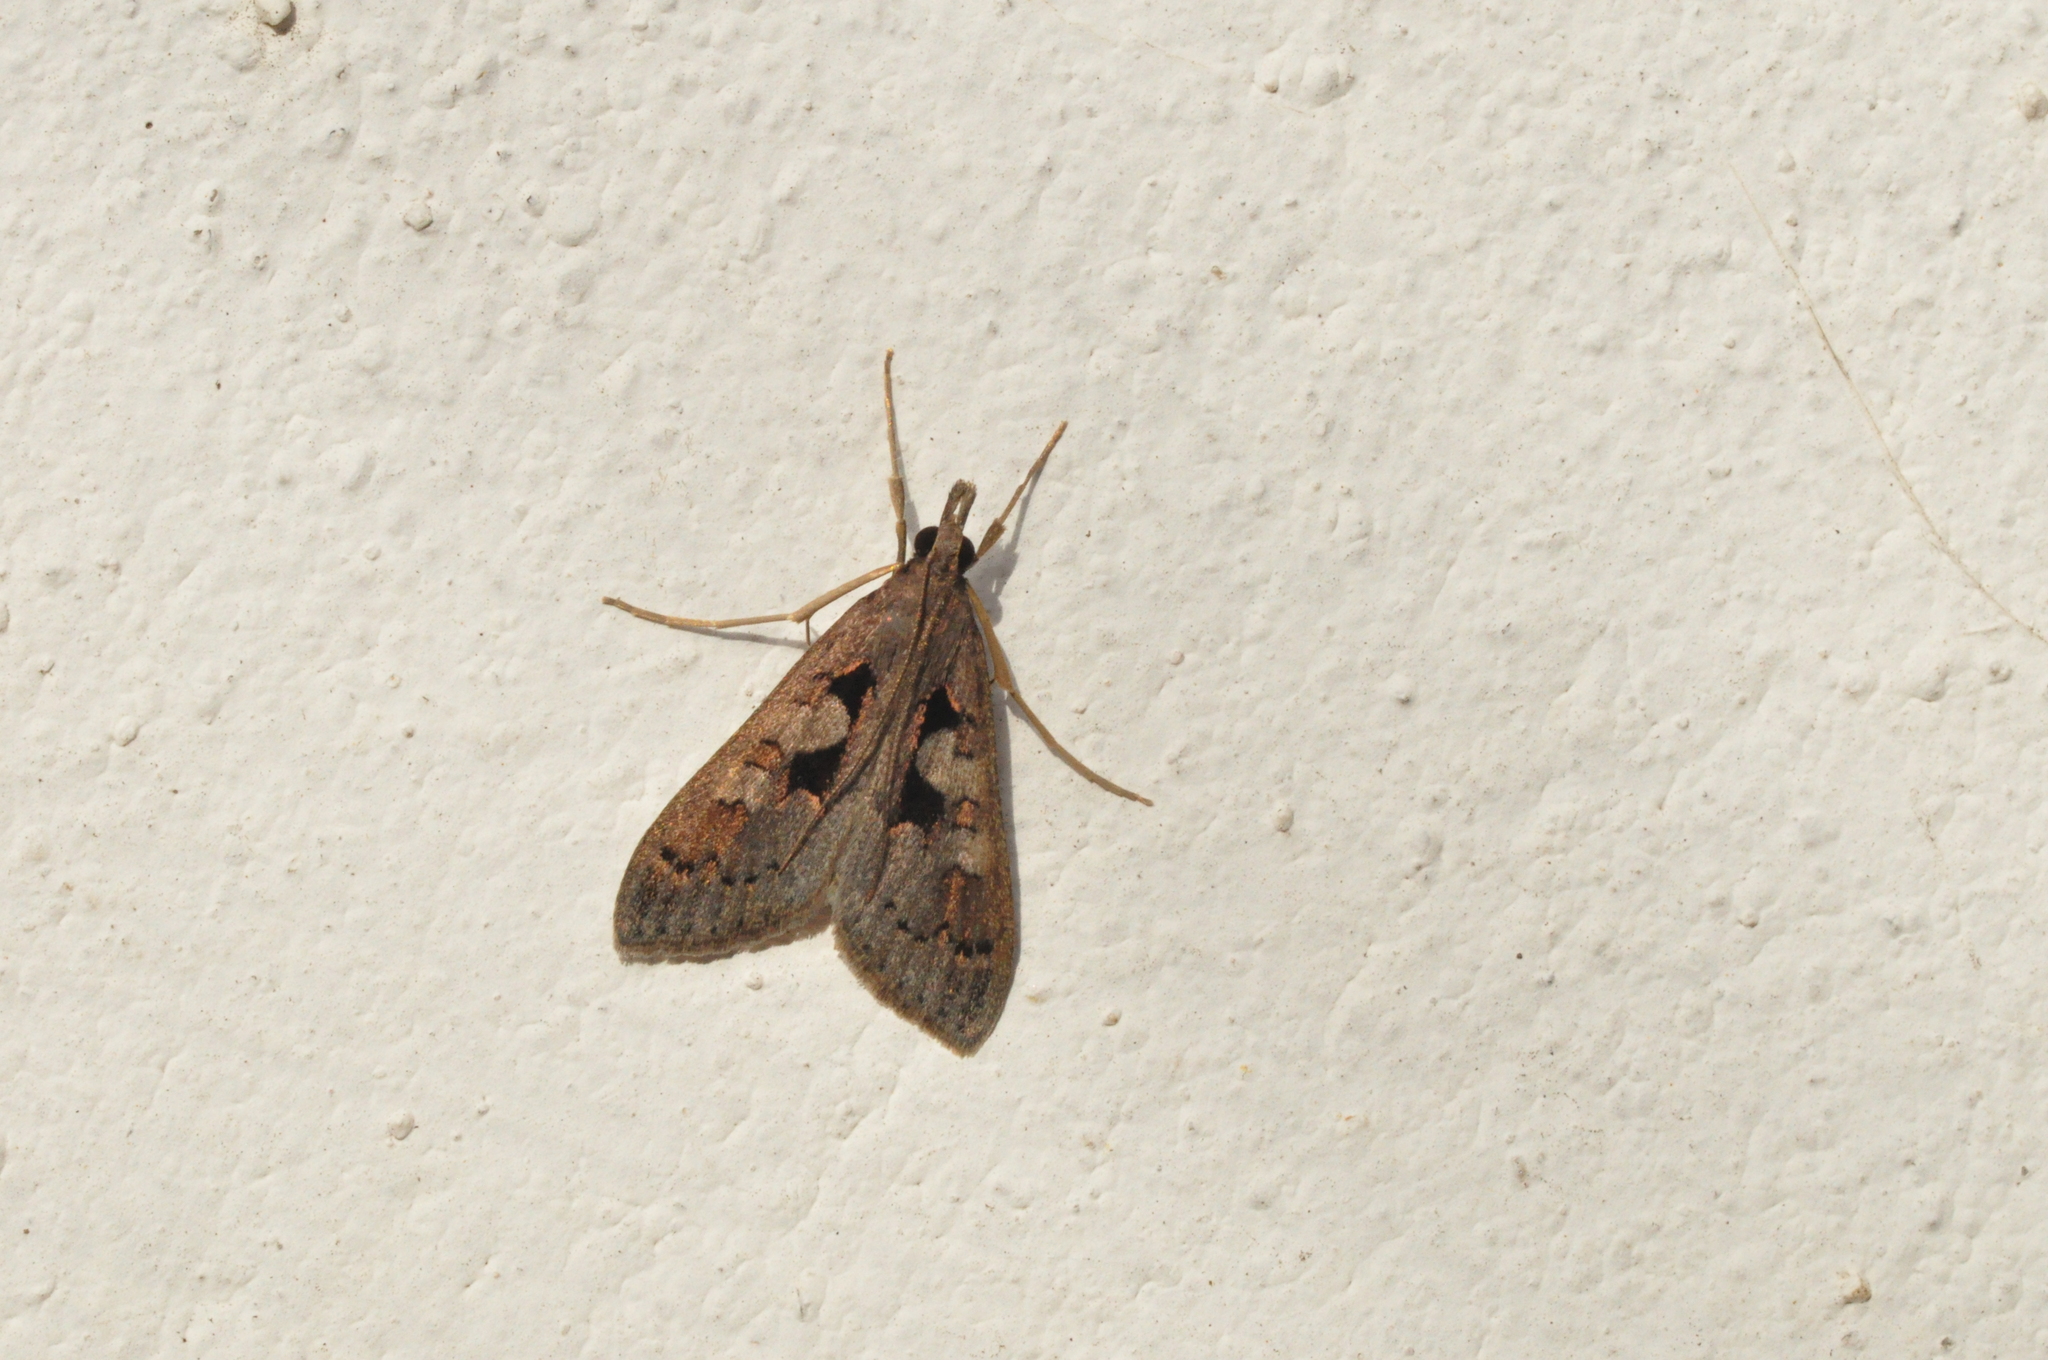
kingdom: Animalia
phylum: Arthropoda
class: Insecta
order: Lepidoptera
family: Crambidae
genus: Mecyna
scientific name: Mecyna asinalis
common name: Coastal pearl
